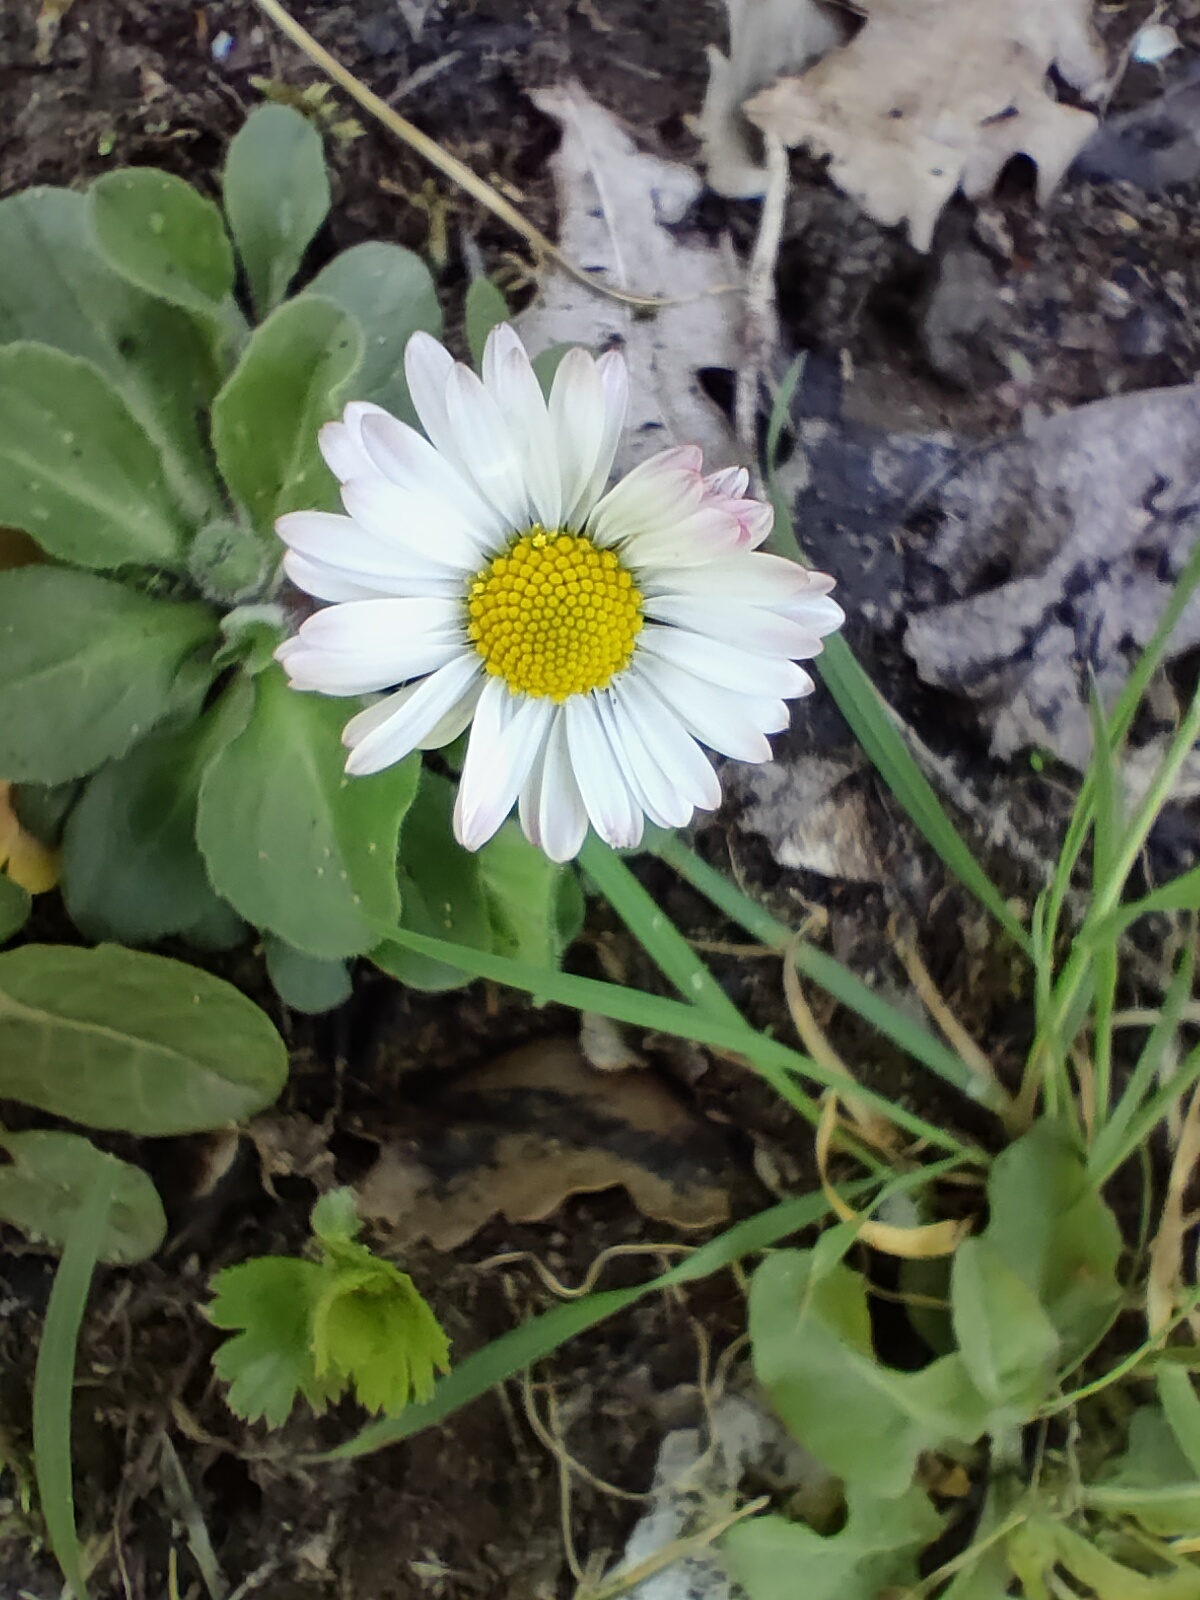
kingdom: Plantae
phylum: Tracheophyta
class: Magnoliopsida
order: Asterales
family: Asteraceae
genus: Bellis
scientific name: Bellis perennis
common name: Lawndaisy
